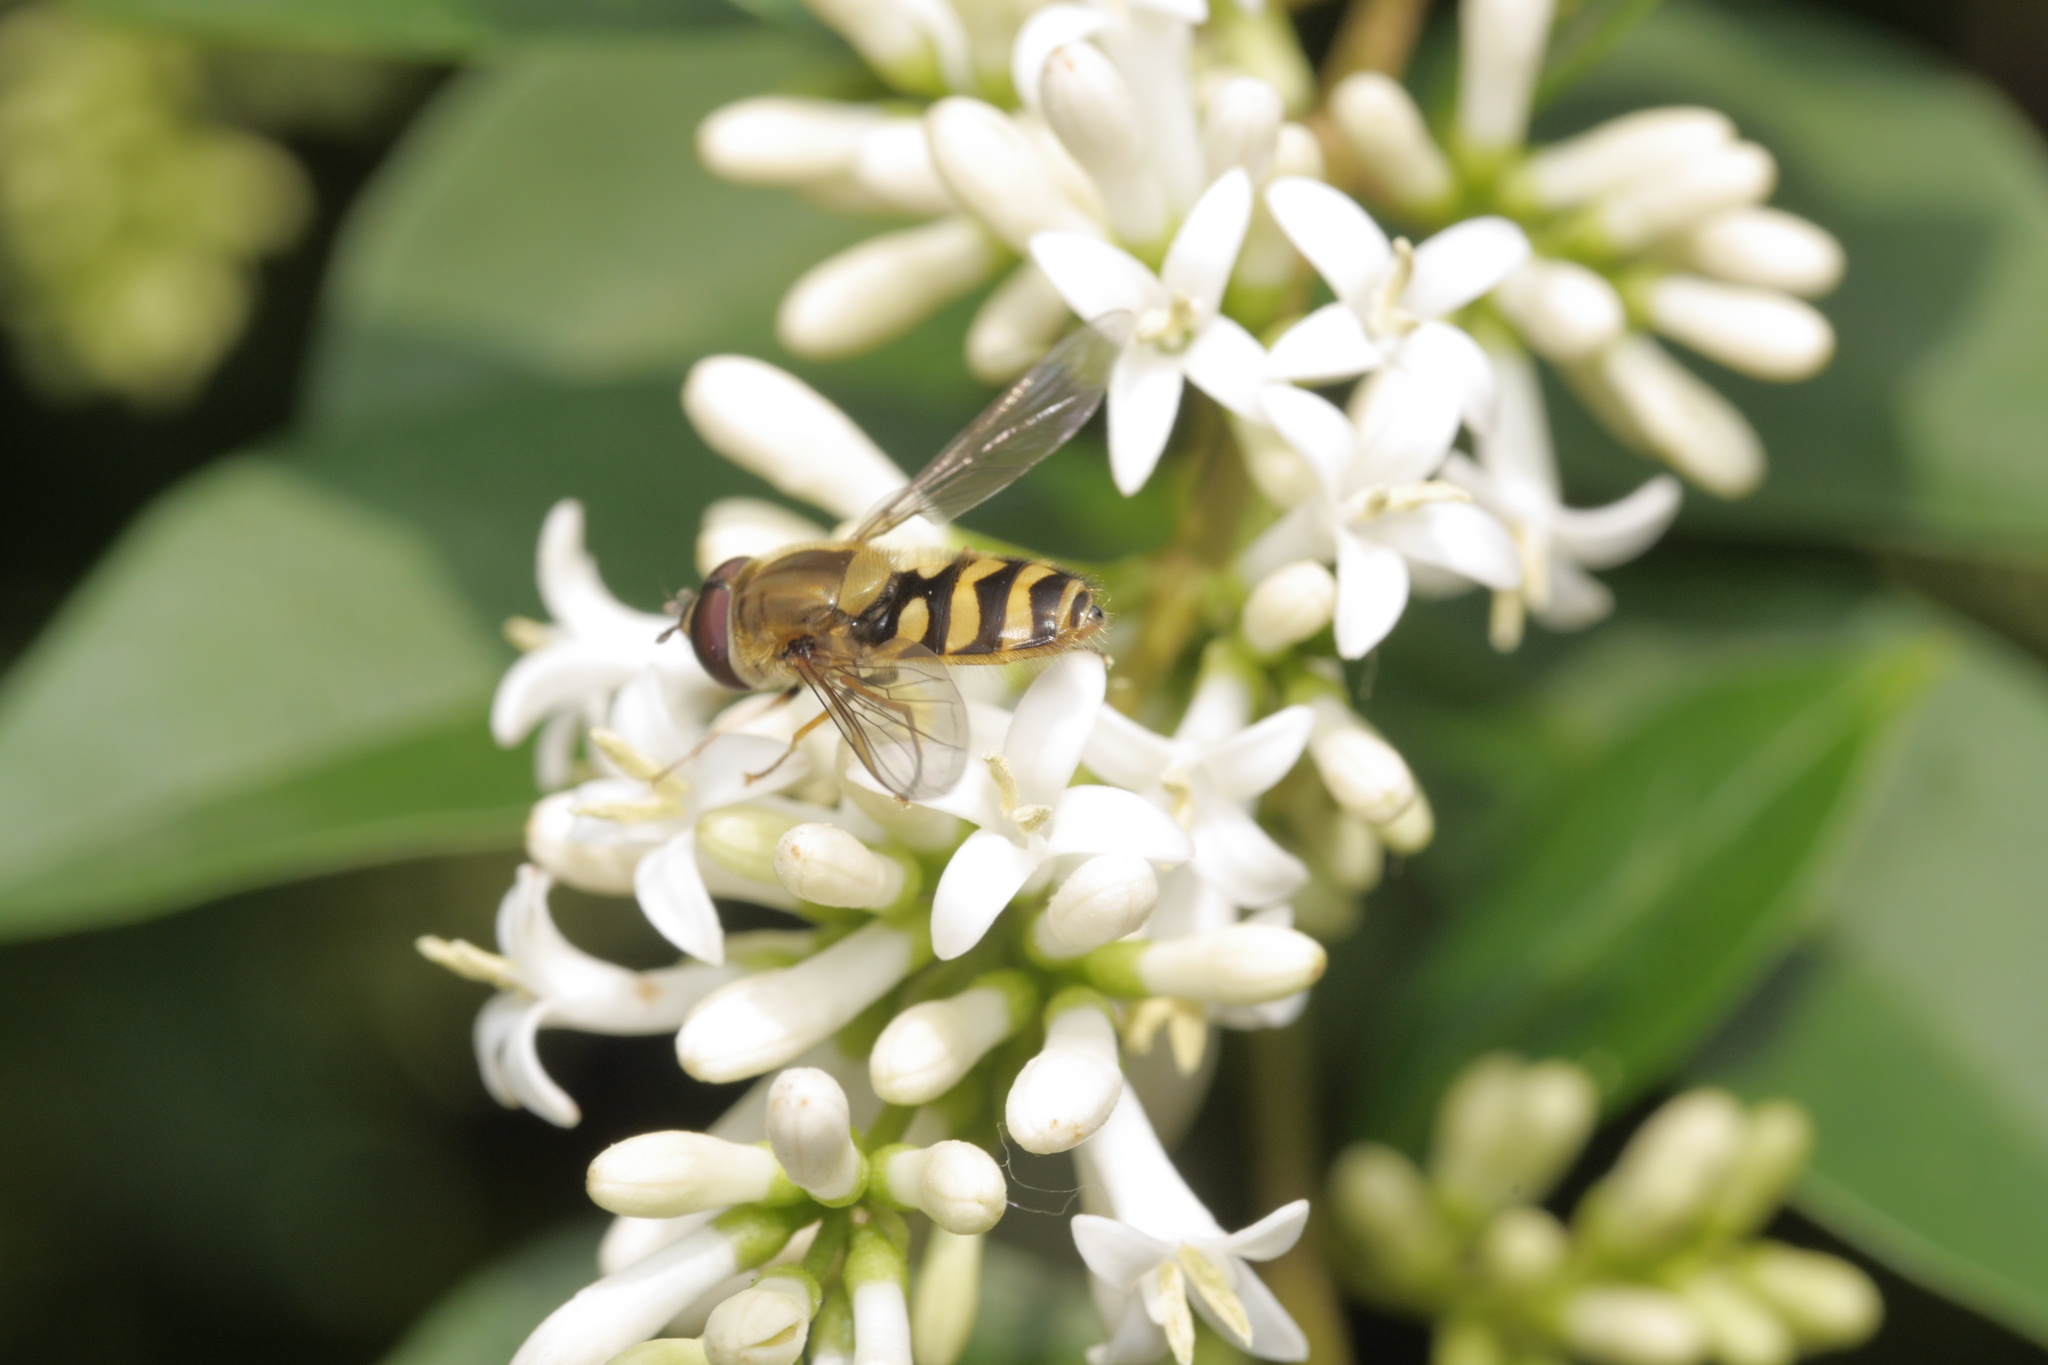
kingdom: Animalia
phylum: Arthropoda
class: Insecta
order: Diptera
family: Syrphidae
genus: Syrphus
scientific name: Syrphus
